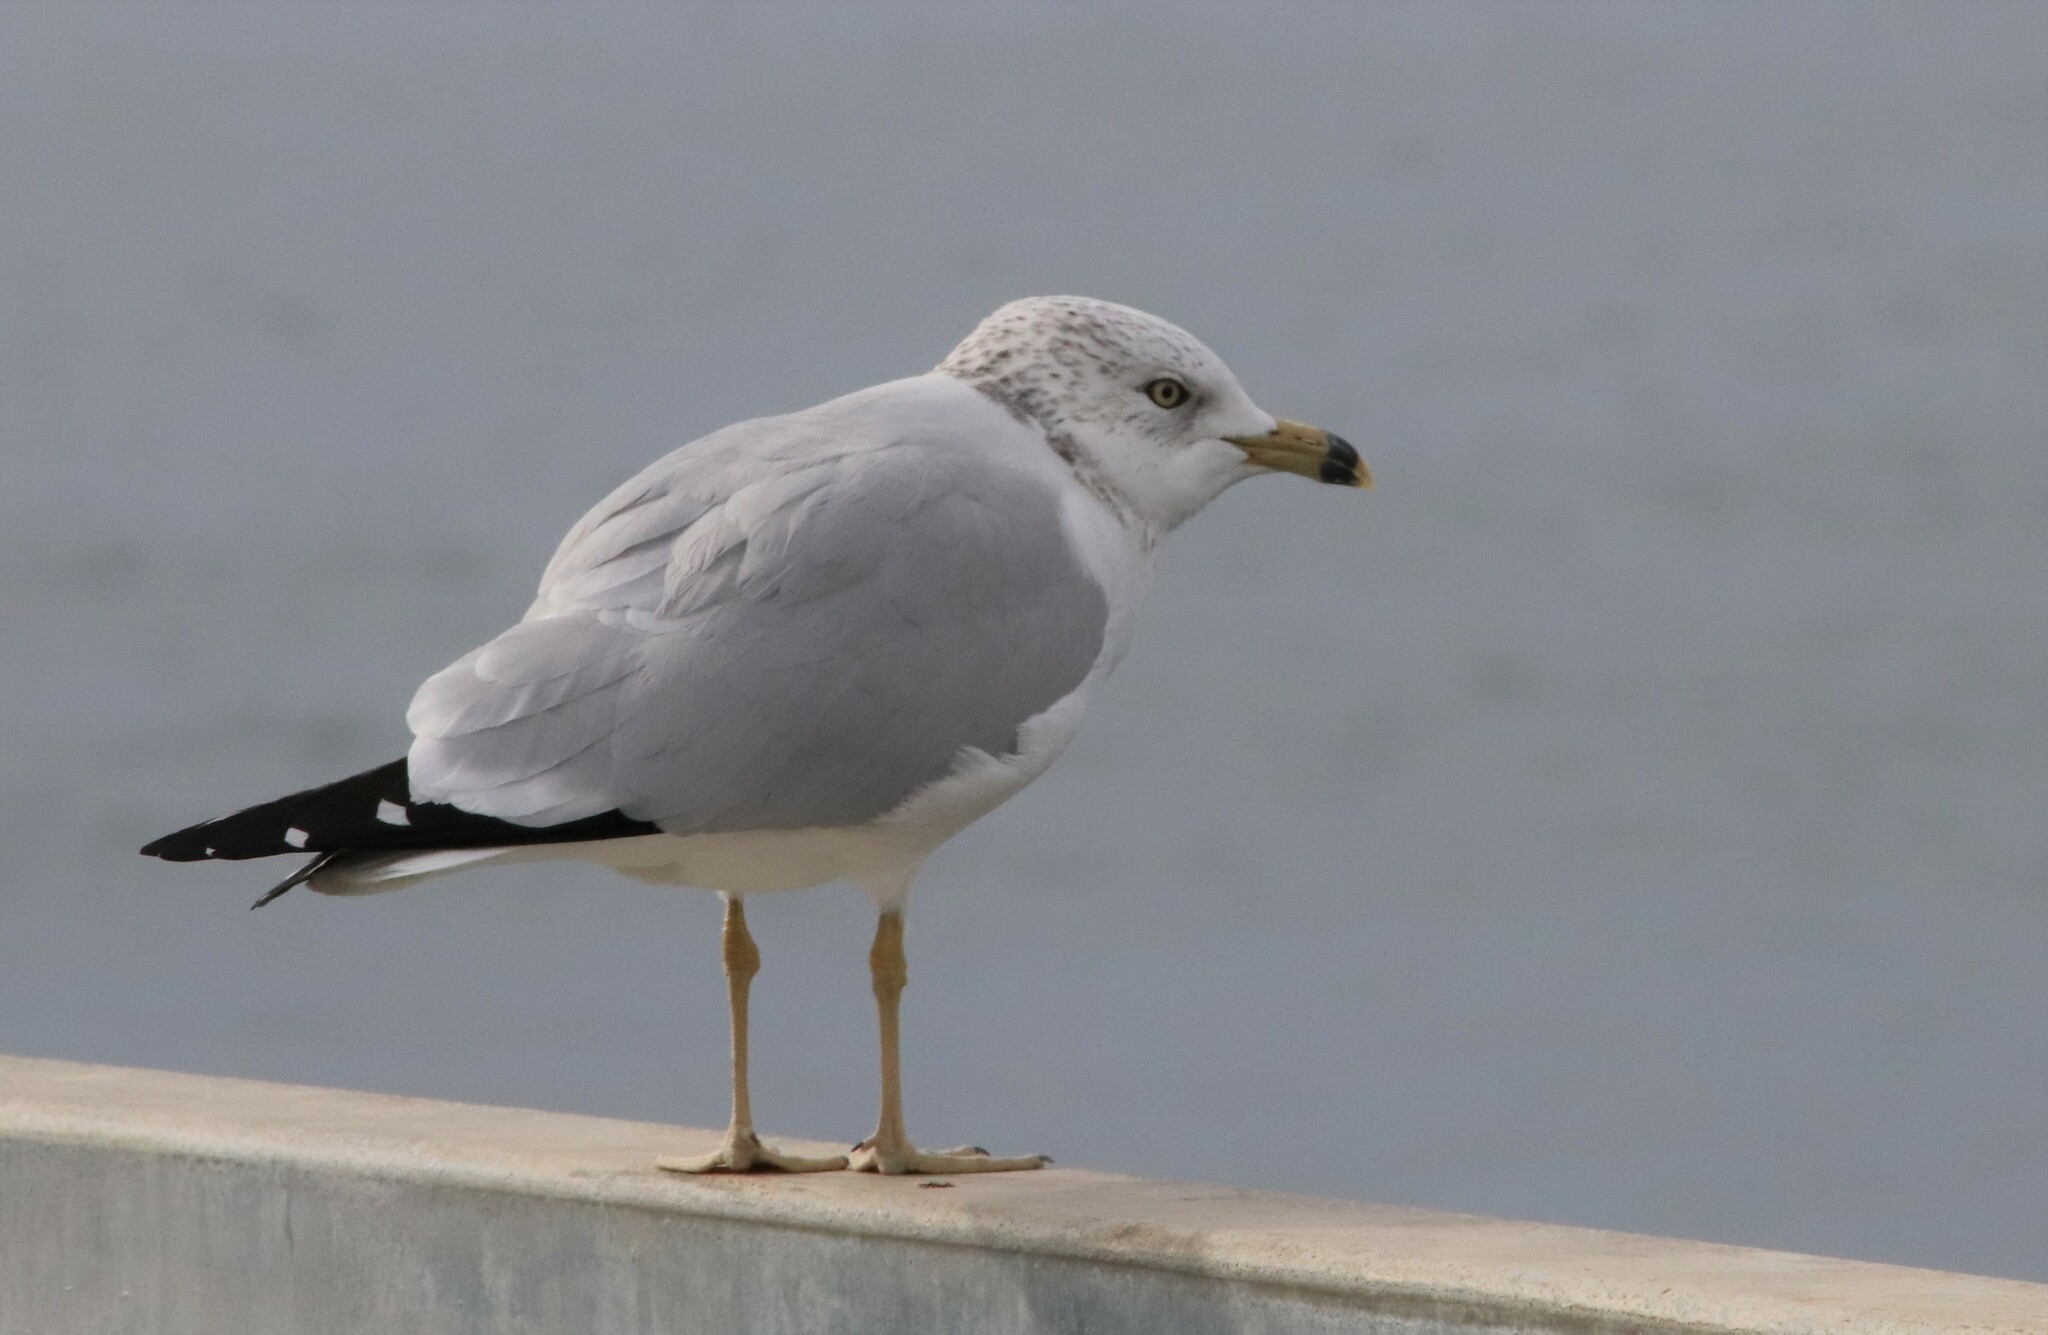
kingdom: Animalia
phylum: Chordata
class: Aves
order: Charadriiformes
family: Laridae
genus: Larus
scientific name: Larus delawarensis
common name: Ring-billed gull
